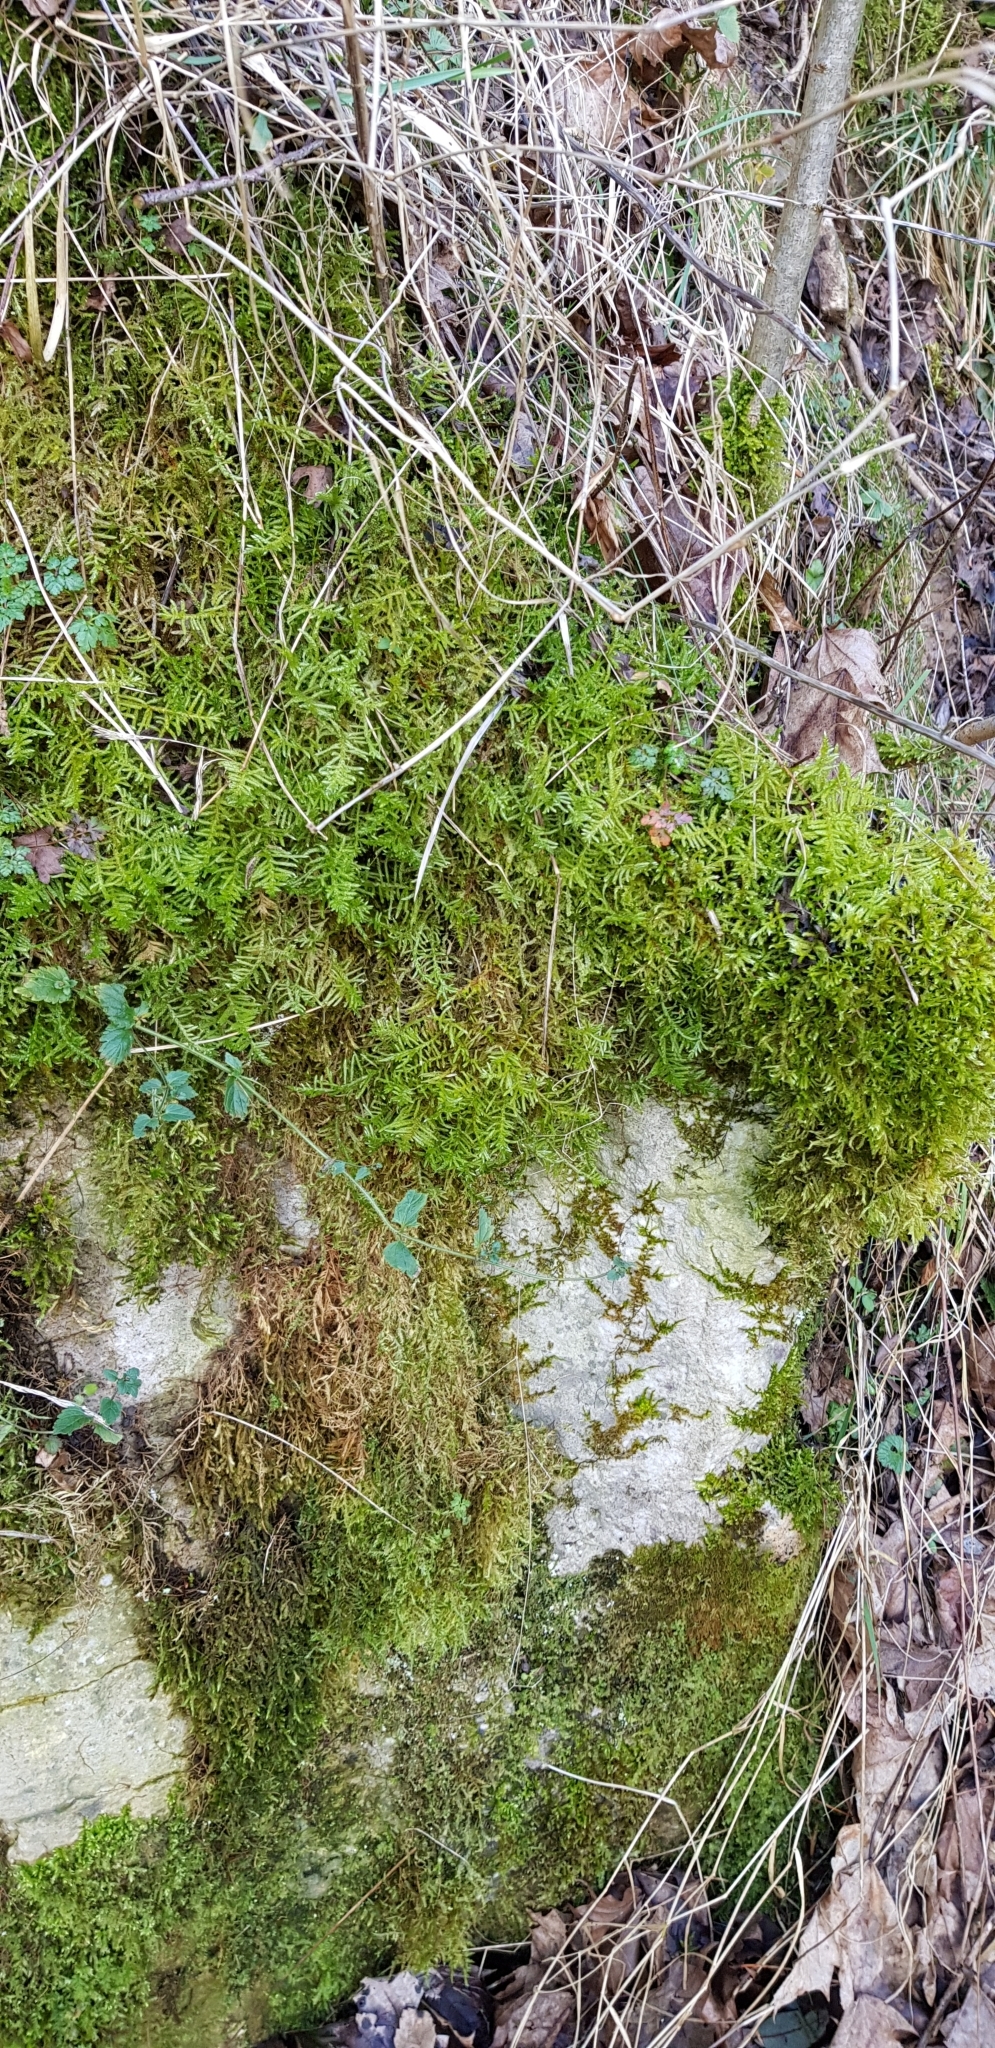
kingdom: Plantae
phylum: Bryophyta
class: Bryopsida
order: Hypnales
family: Brachytheciaceae
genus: Pseudoscleropodium
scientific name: Pseudoscleropodium purum
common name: Neat feather-moss
